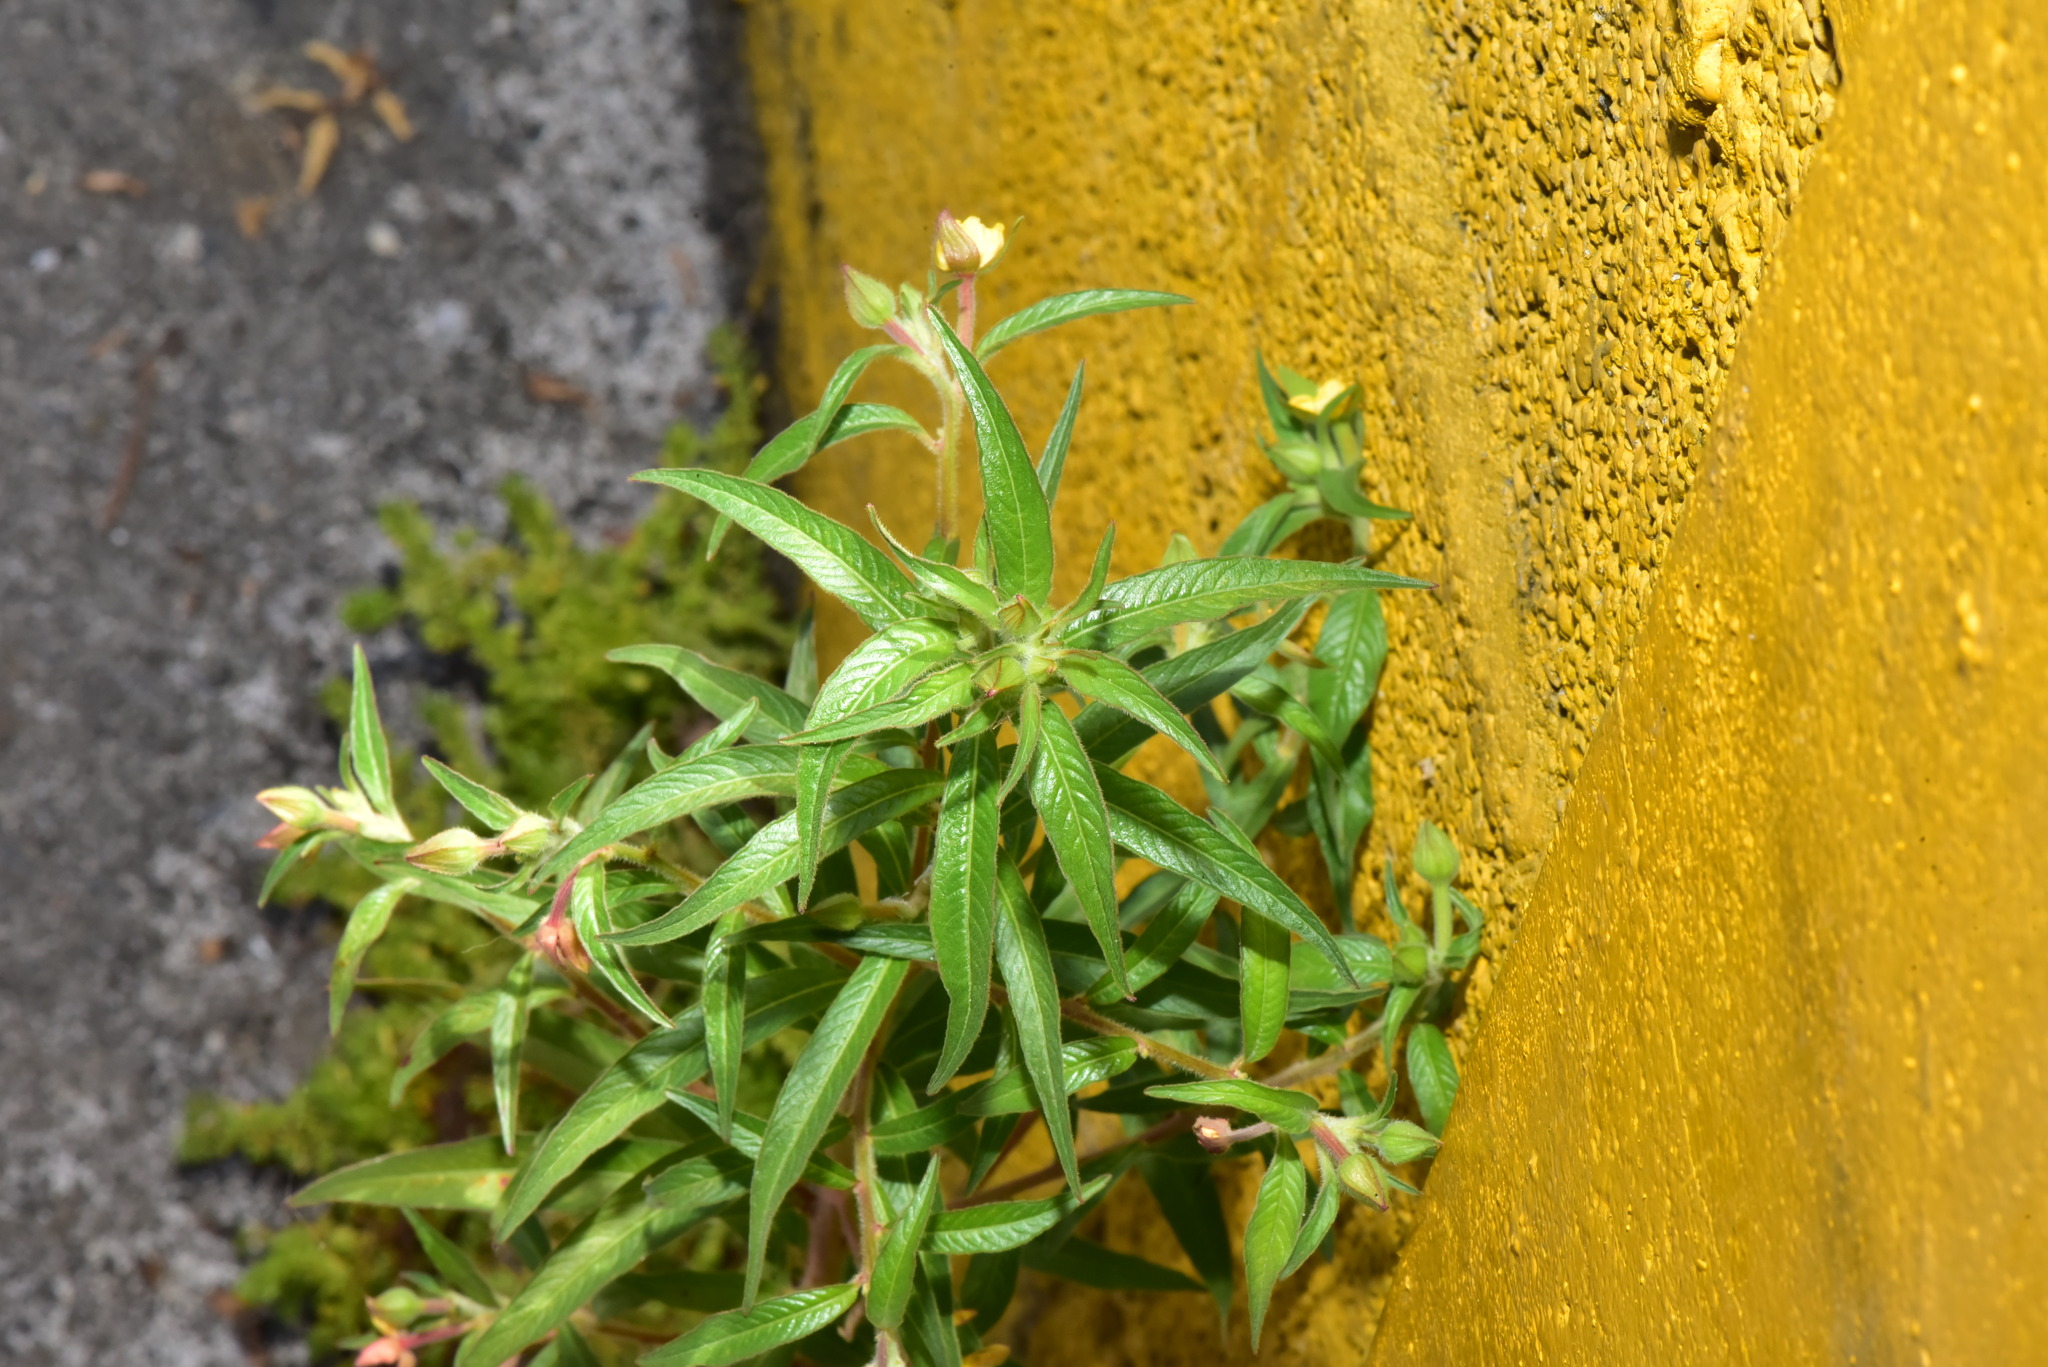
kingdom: Plantae
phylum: Tracheophyta
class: Magnoliopsida
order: Myrtales
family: Onagraceae
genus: Ludwigia
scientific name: Ludwigia octovalvis
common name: Water-primrose
